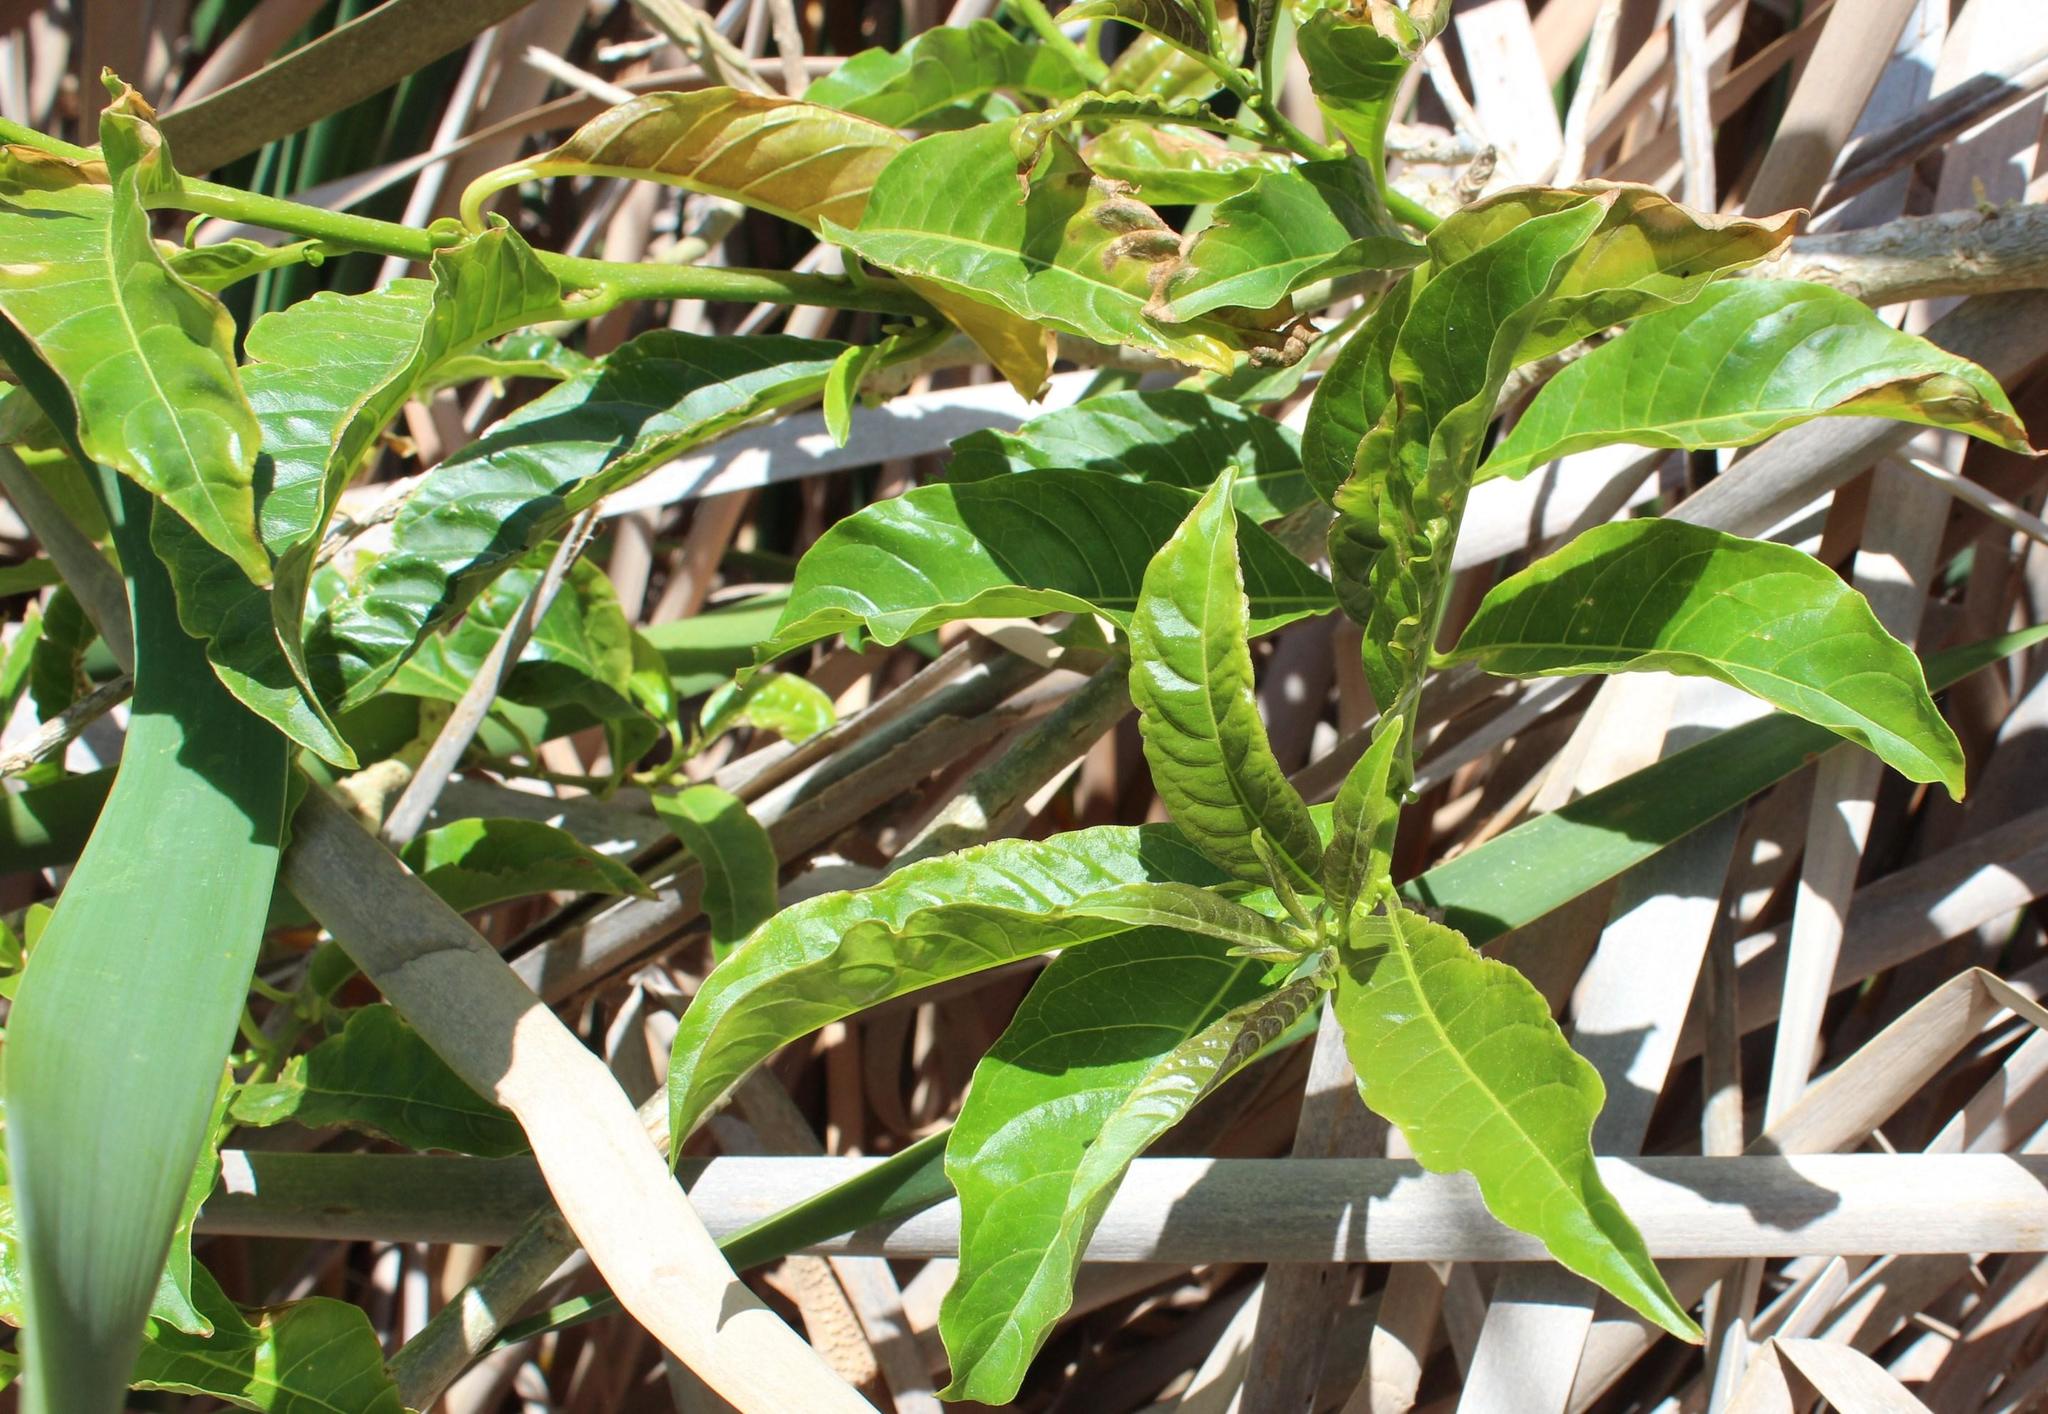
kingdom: Plantae
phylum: Tracheophyta
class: Magnoliopsida
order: Solanales
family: Solanaceae
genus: Cestrum
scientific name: Cestrum laevigatum
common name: Inkberry
